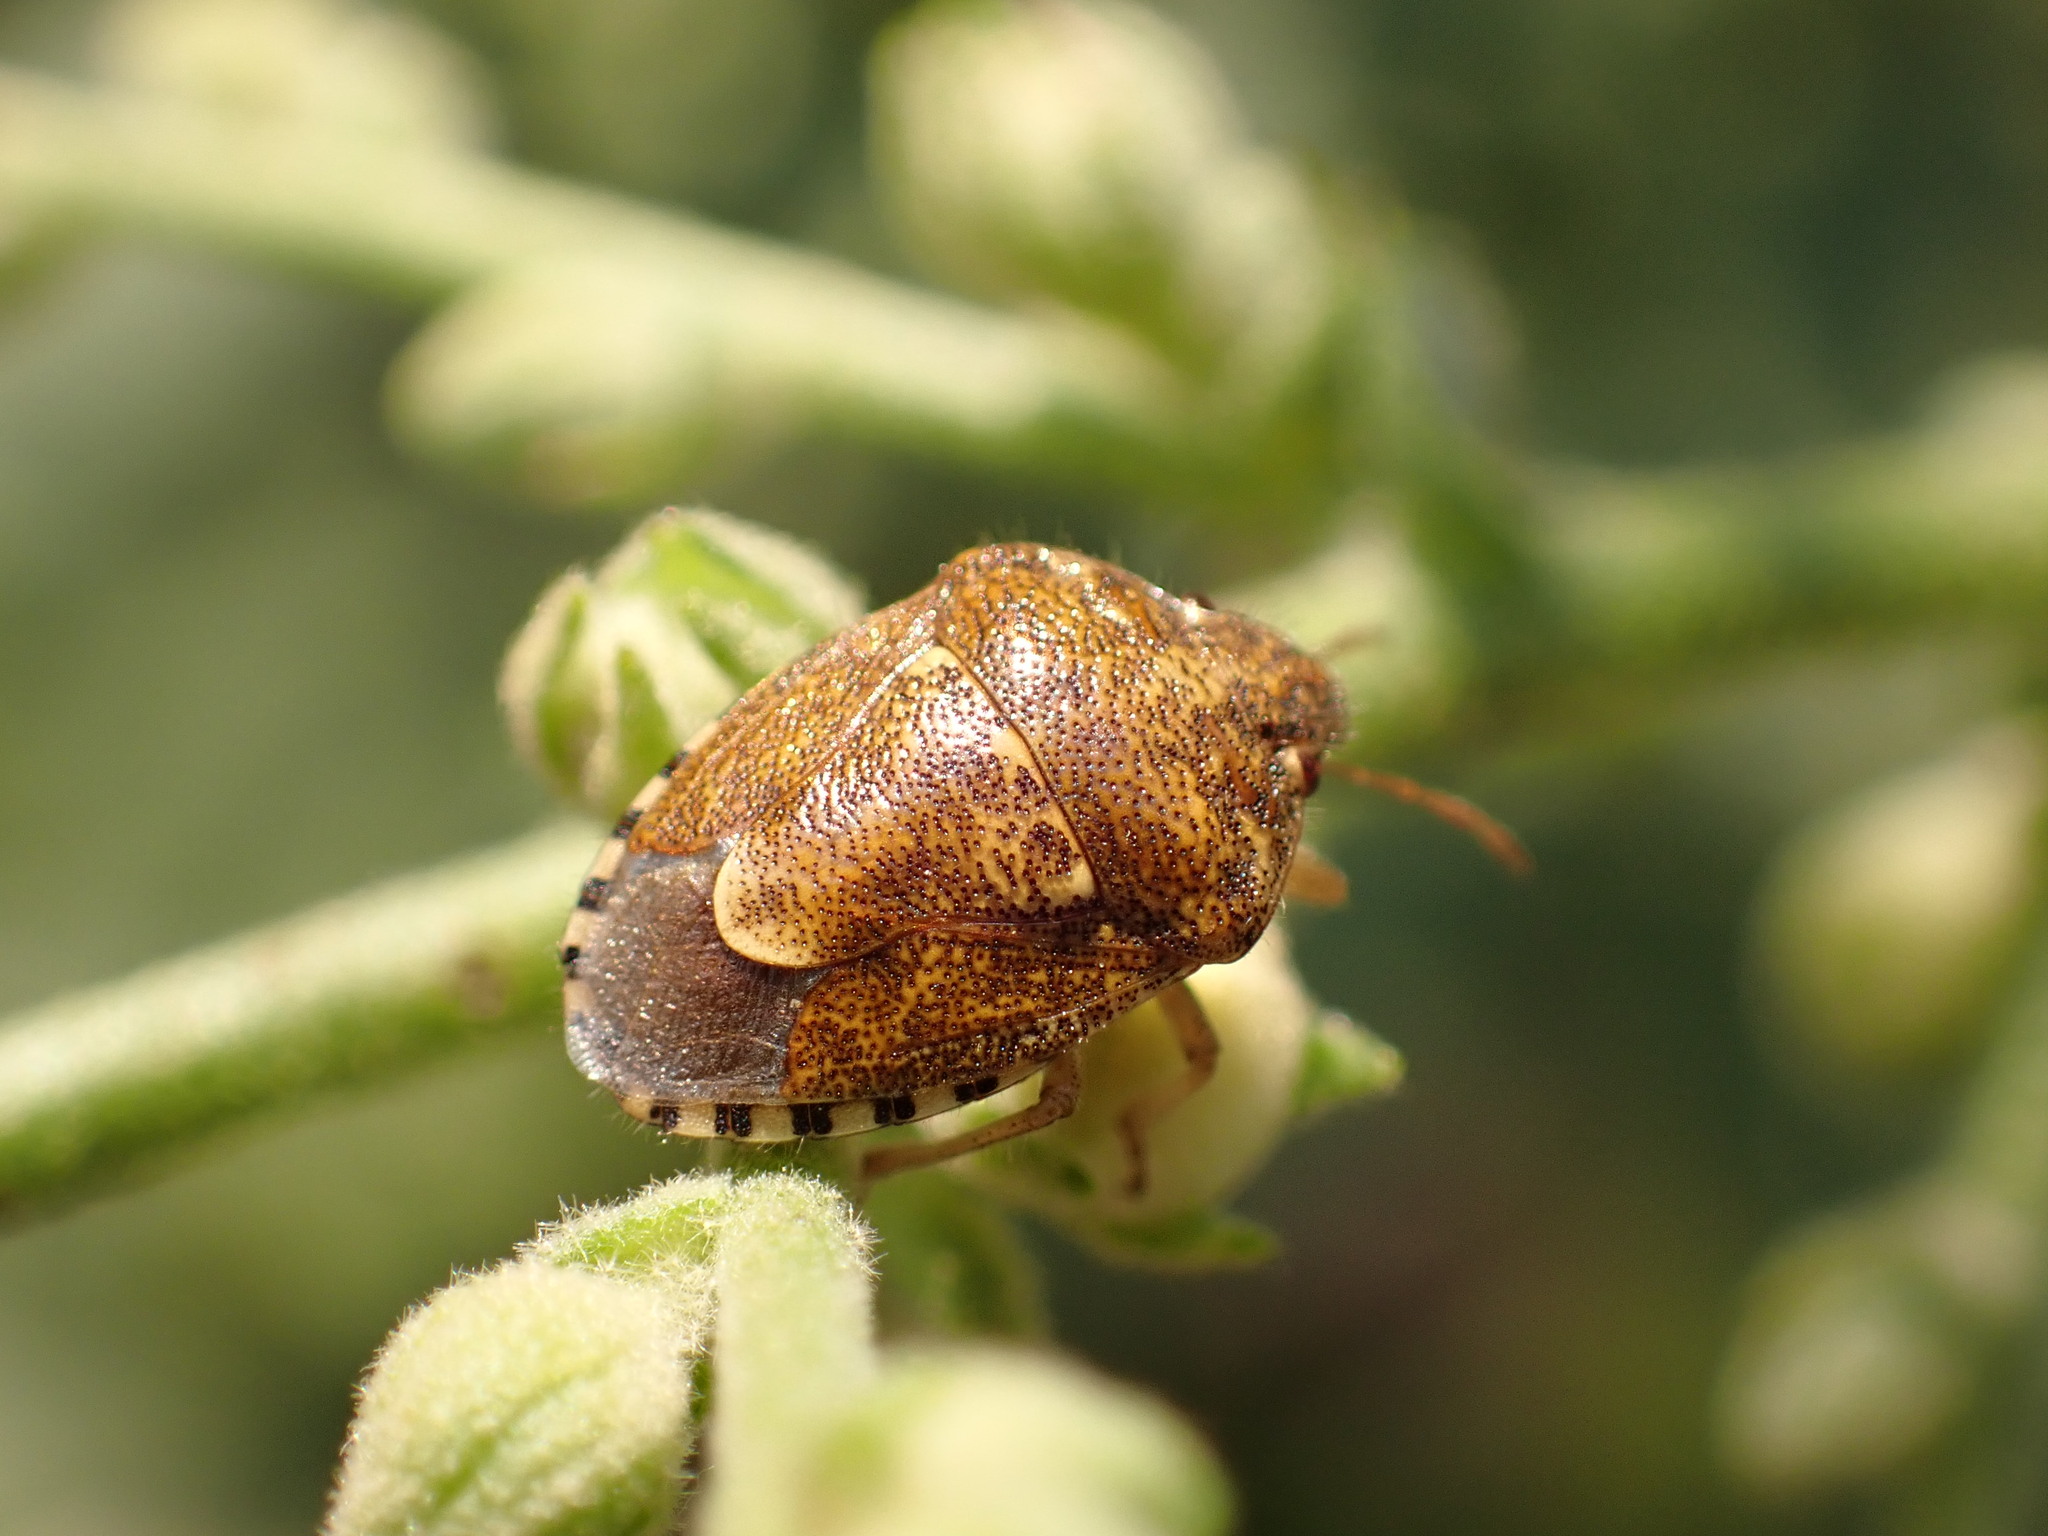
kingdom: Animalia
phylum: Arthropoda
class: Insecta
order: Hemiptera
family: Pentatomidae
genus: Staria
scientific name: Staria lunata
